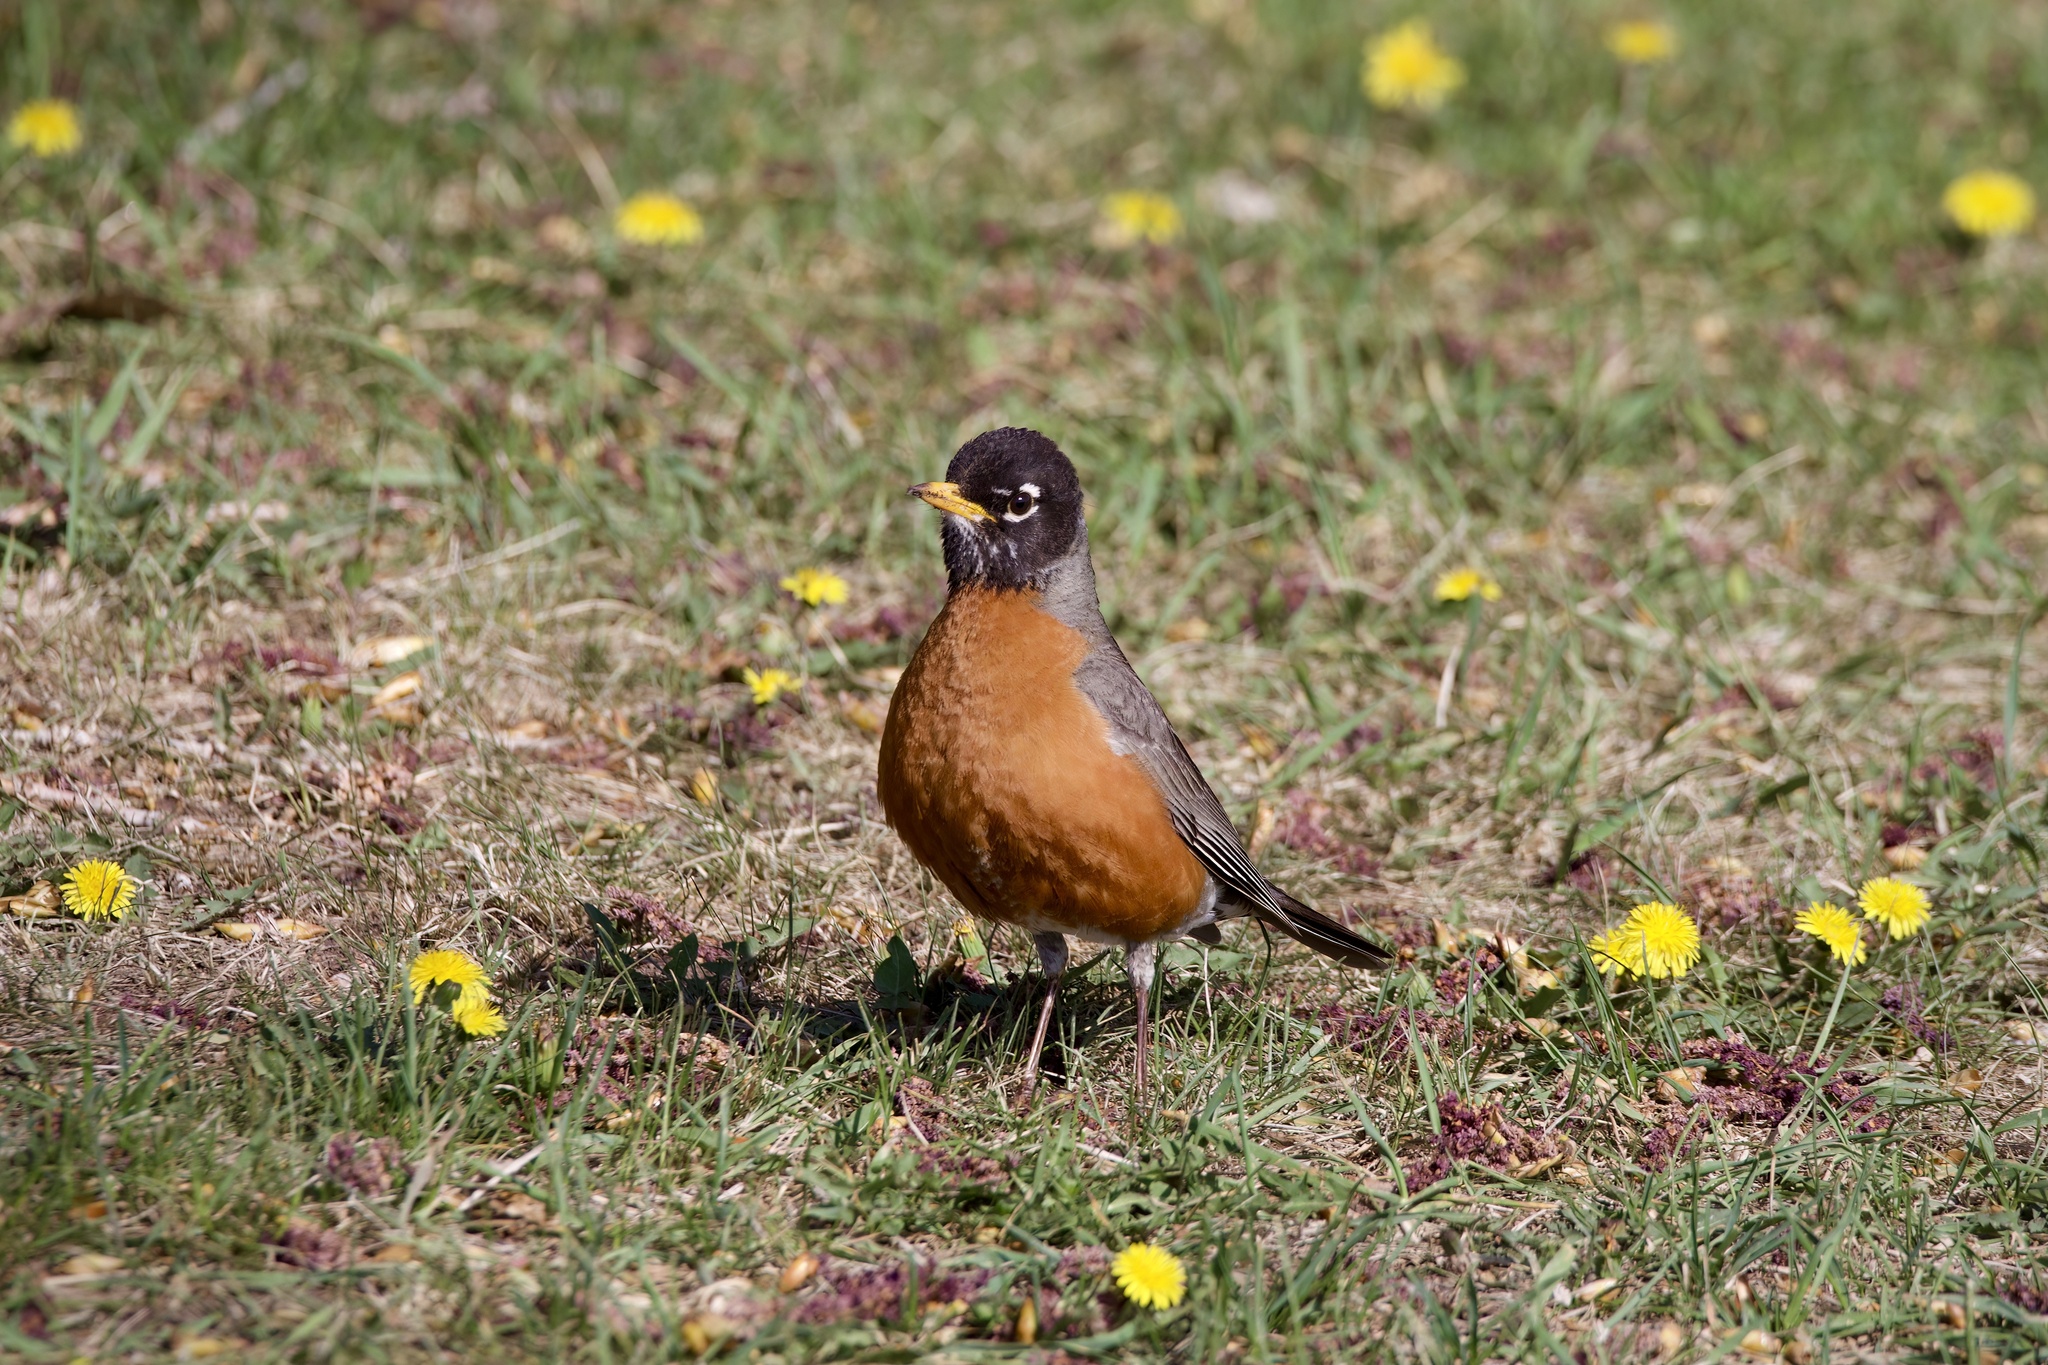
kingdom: Animalia
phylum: Chordata
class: Aves
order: Passeriformes
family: Turdidae
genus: Turdus
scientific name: Turdus migratorius
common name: American robin
